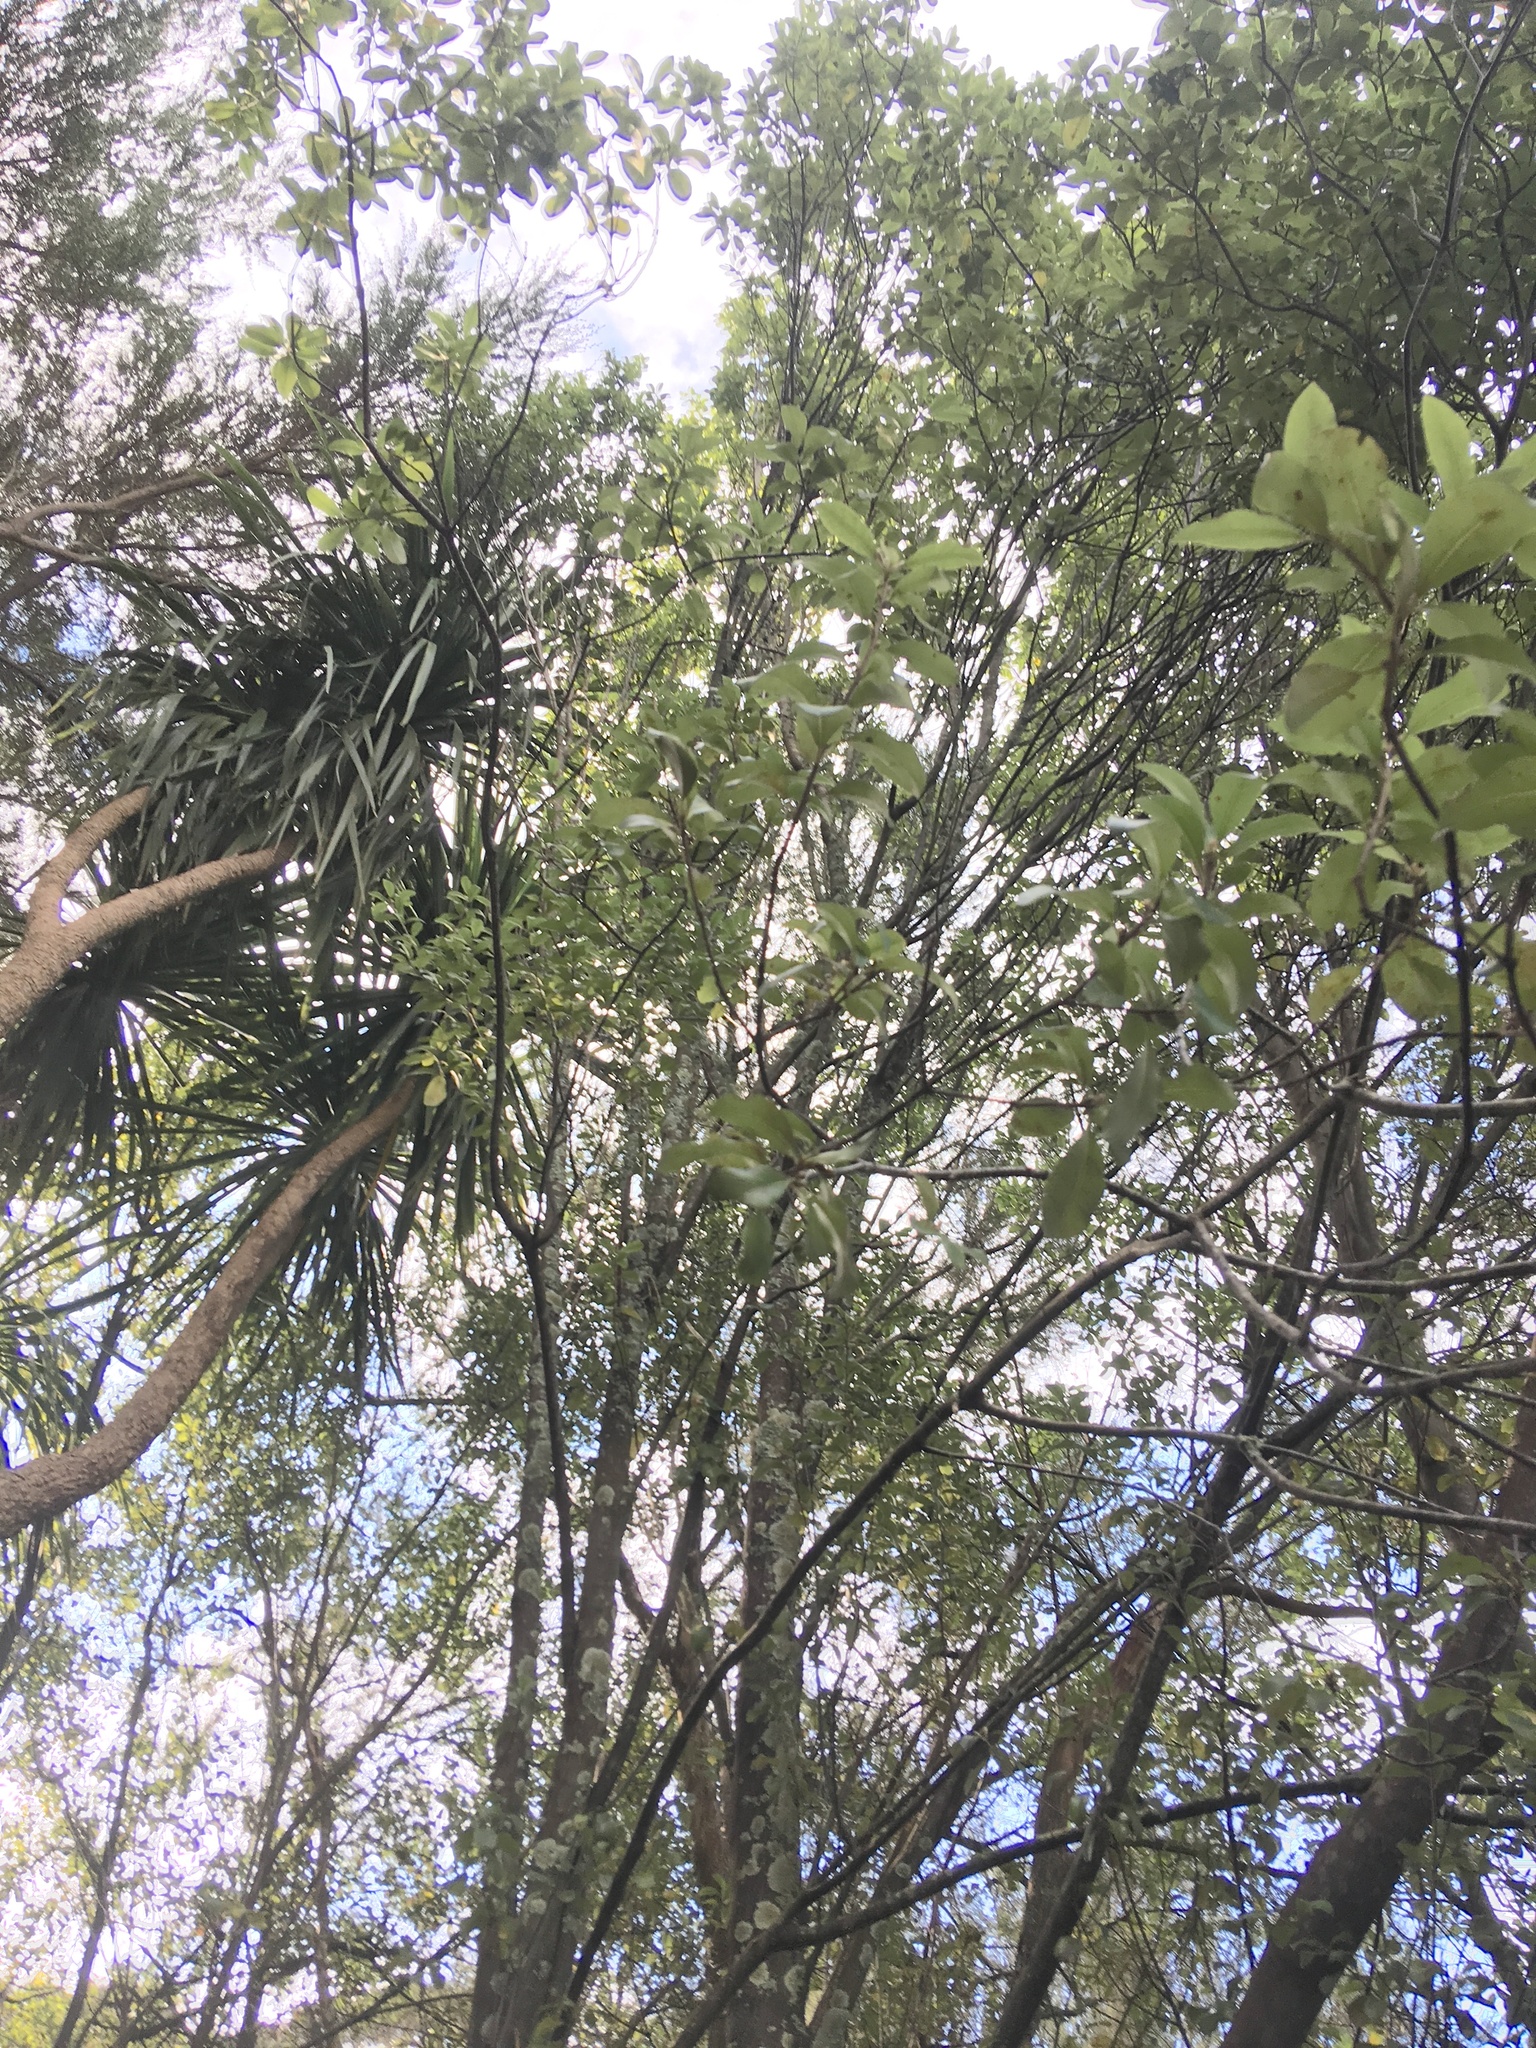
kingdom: Plantae
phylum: Tracheophyta
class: Liliopsida
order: Asparagales
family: Asparagaceae
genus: Cordyline
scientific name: Cordyline australis
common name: Cabbage-palm
